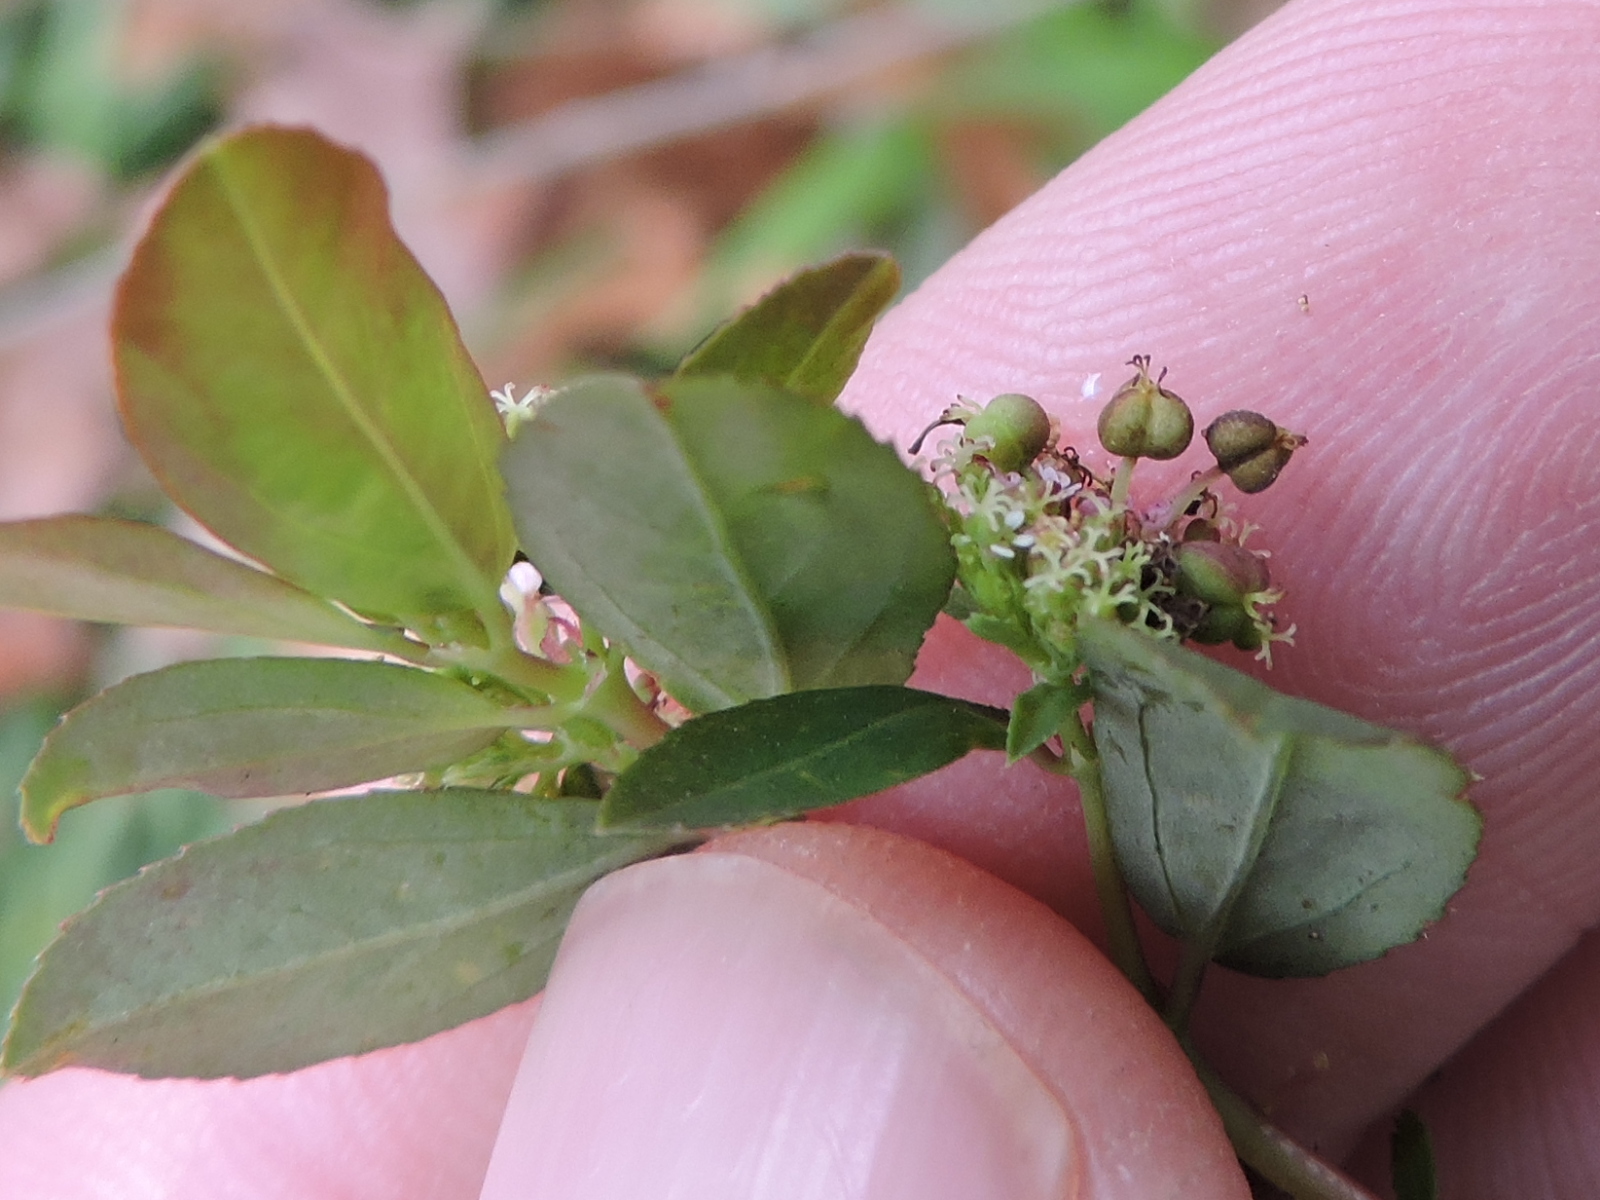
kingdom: Plantae
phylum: Tracheophyta
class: Magnoliopsida
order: Malpighiales
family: Euphorbiaceae
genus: Euphorbia
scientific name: Euphorbia hypericifolia
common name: Graceful sandmat
